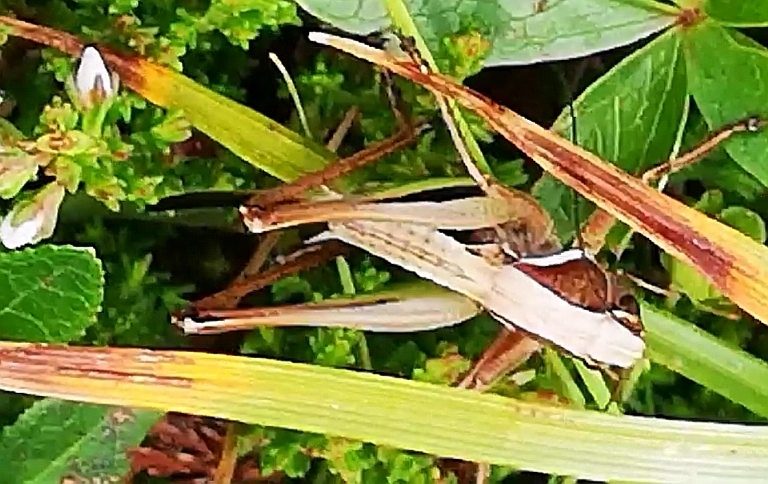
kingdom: Animalia
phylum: Arthropoda
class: Insecta
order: Orthoptera
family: Tettigoniidae
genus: Metrioptera
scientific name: Metrioptera brachyptera
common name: Bog bush-cricket
